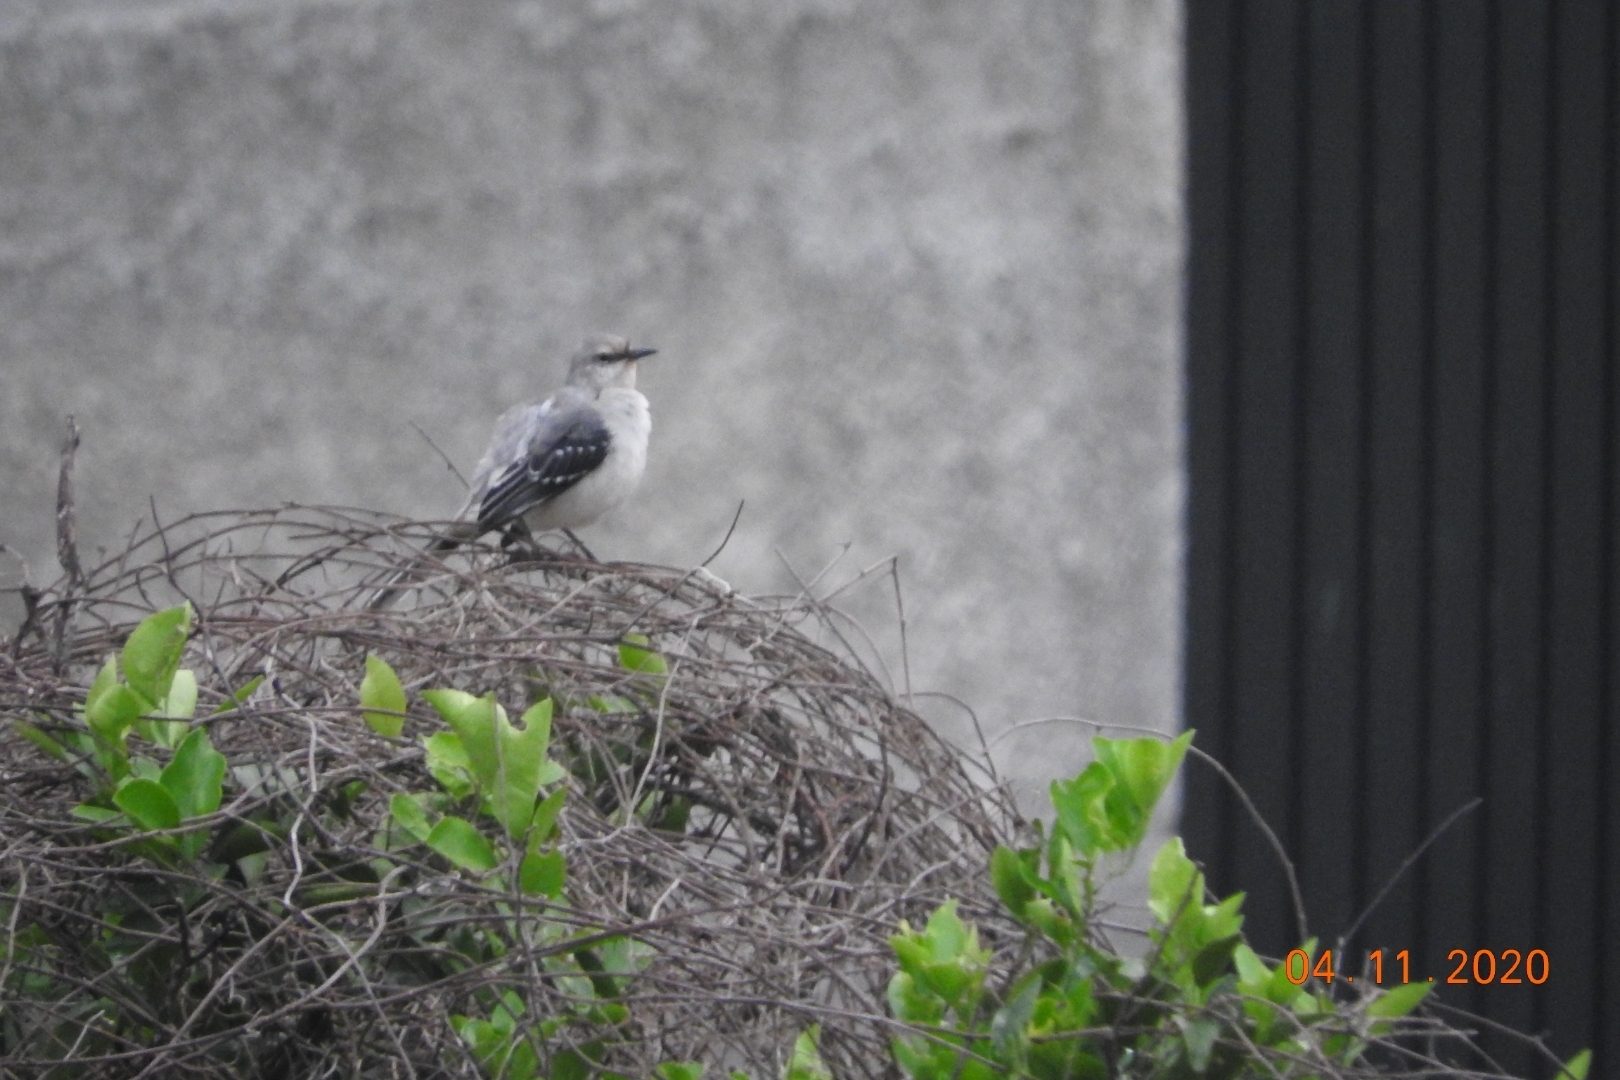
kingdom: Animalia
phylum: Chordata
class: Aves
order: Passeriformes
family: Mimidae
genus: Mimus
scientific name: Mimus gilvus
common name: Tropical mockingbird
